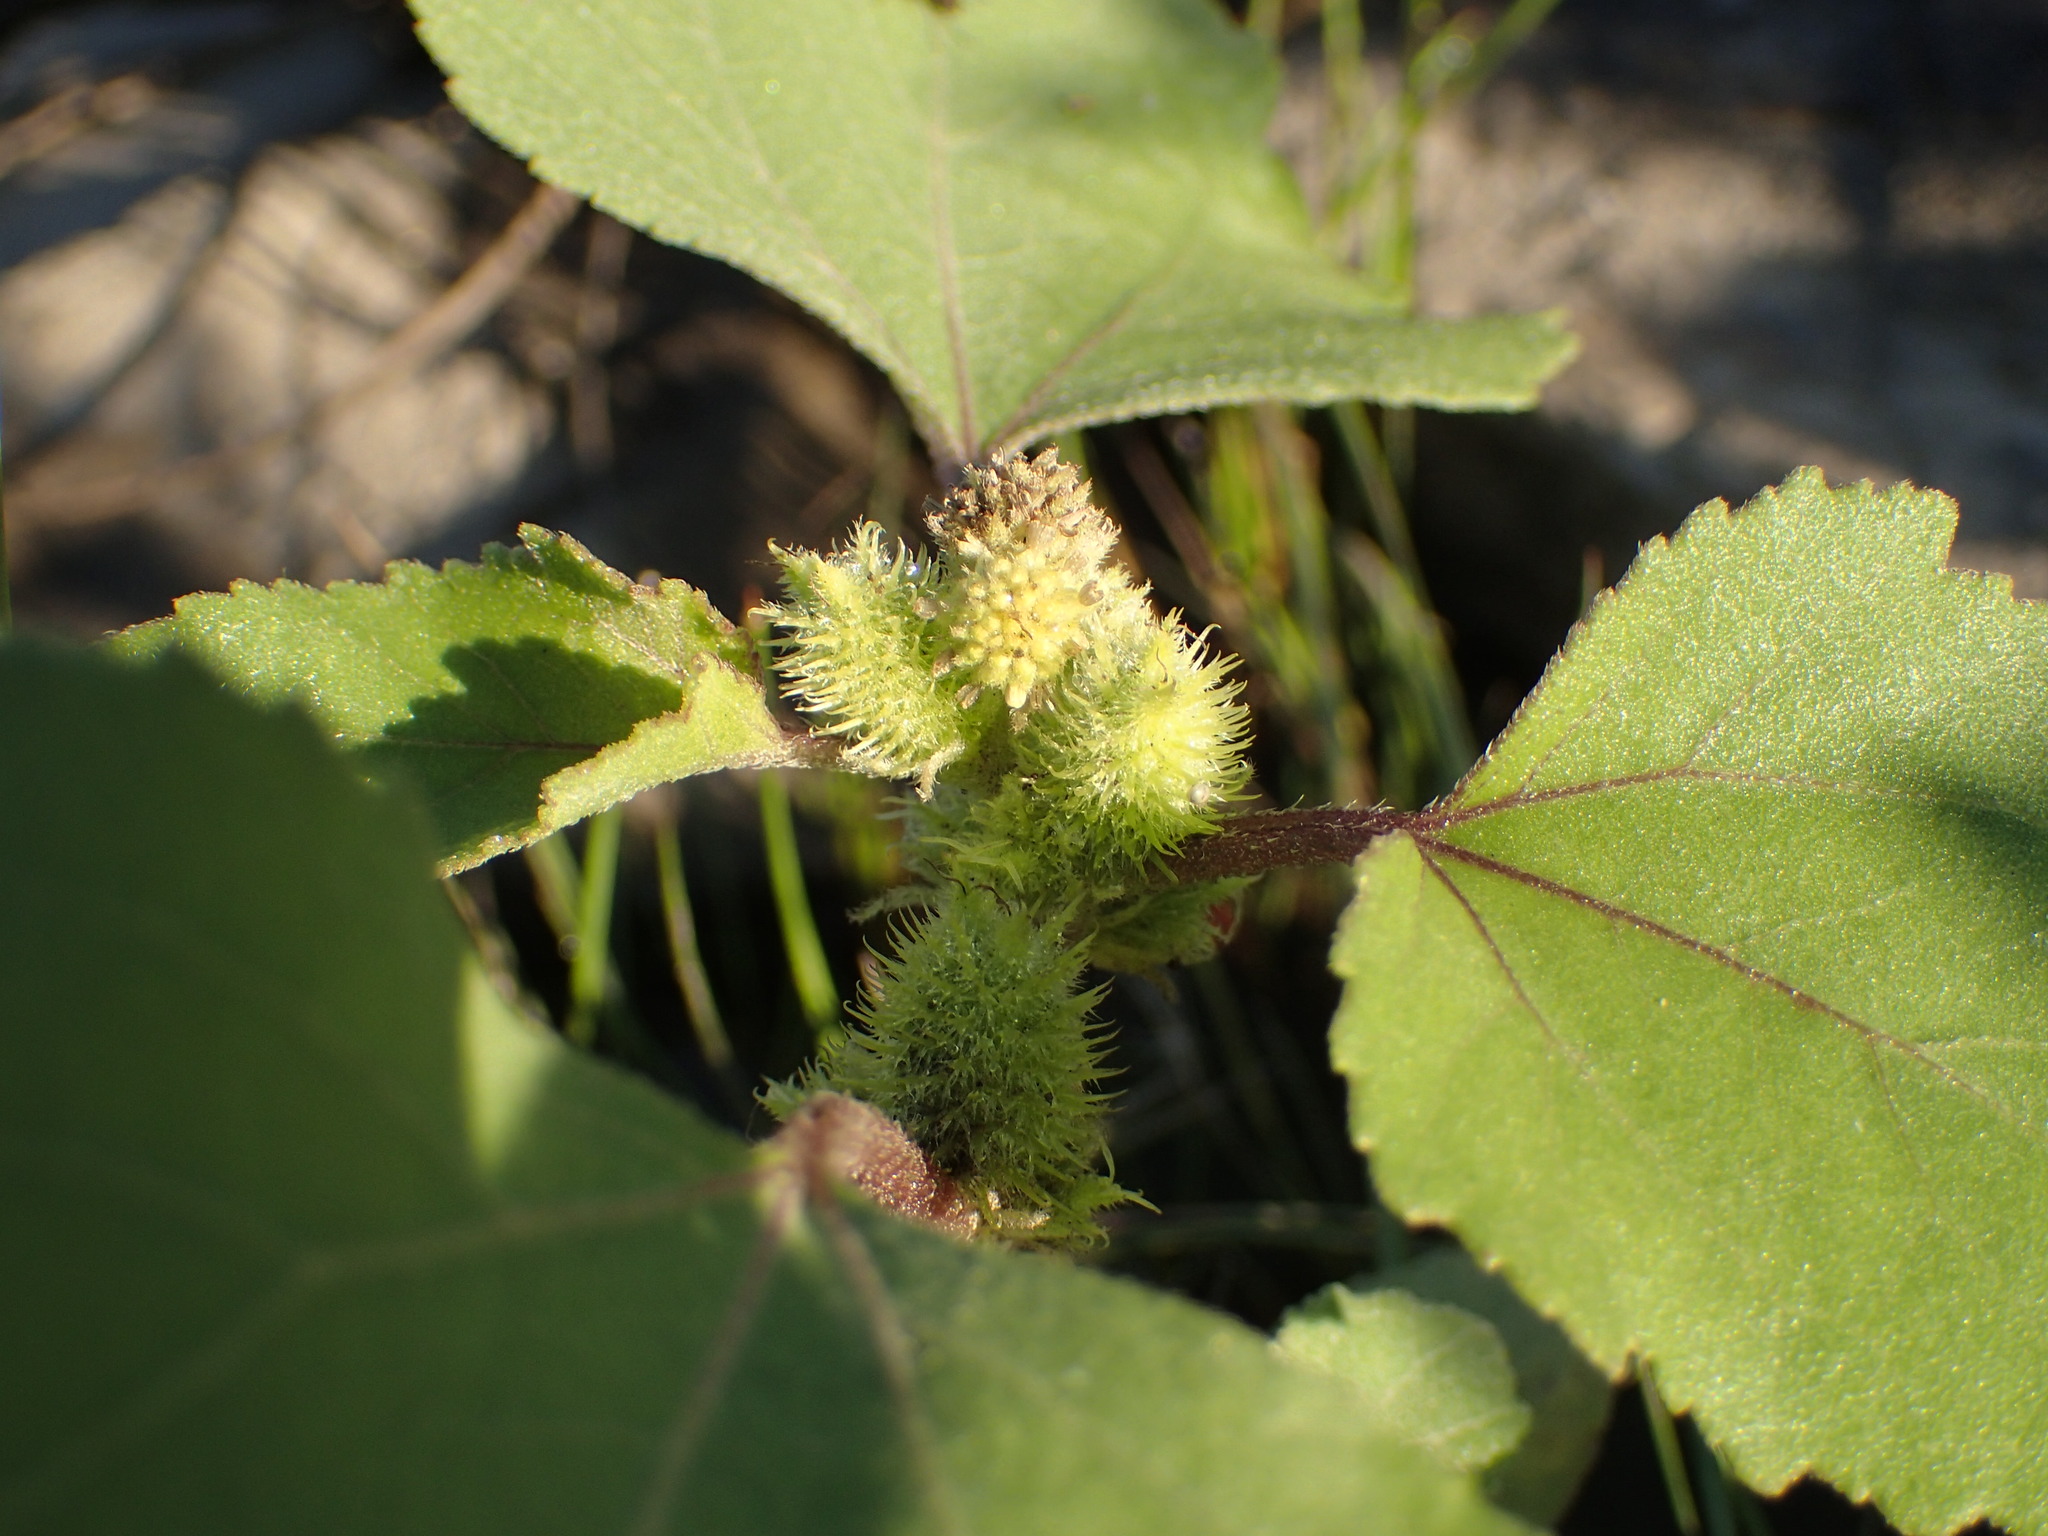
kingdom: Plantae
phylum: Tracheophyta
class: Magnoliopsida
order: Asterales
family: Asteraceae
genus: Xanthium
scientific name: Xanthium strumarium
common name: Rough cocklebur
